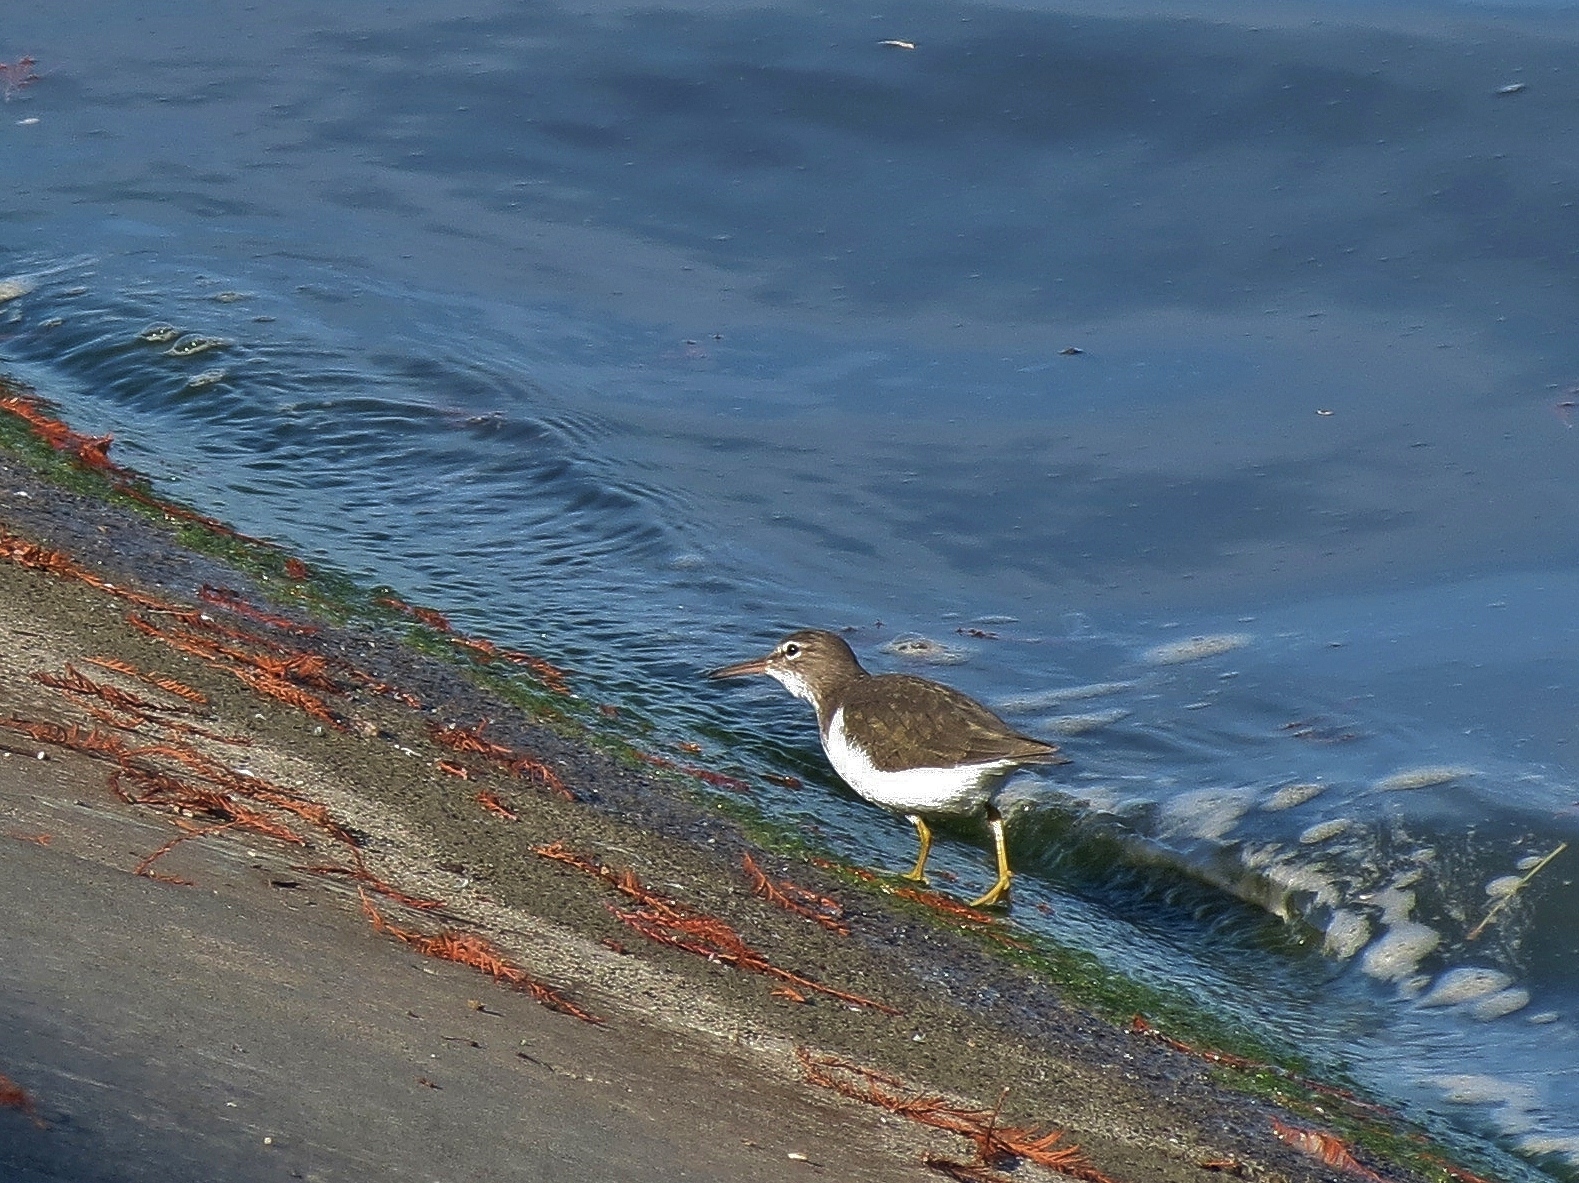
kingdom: Animalia
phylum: Chordata
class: Aves
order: Charadriiformes
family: Scolopacidae
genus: Actitis
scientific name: Actitis macularius
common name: Spotted sandpiper
